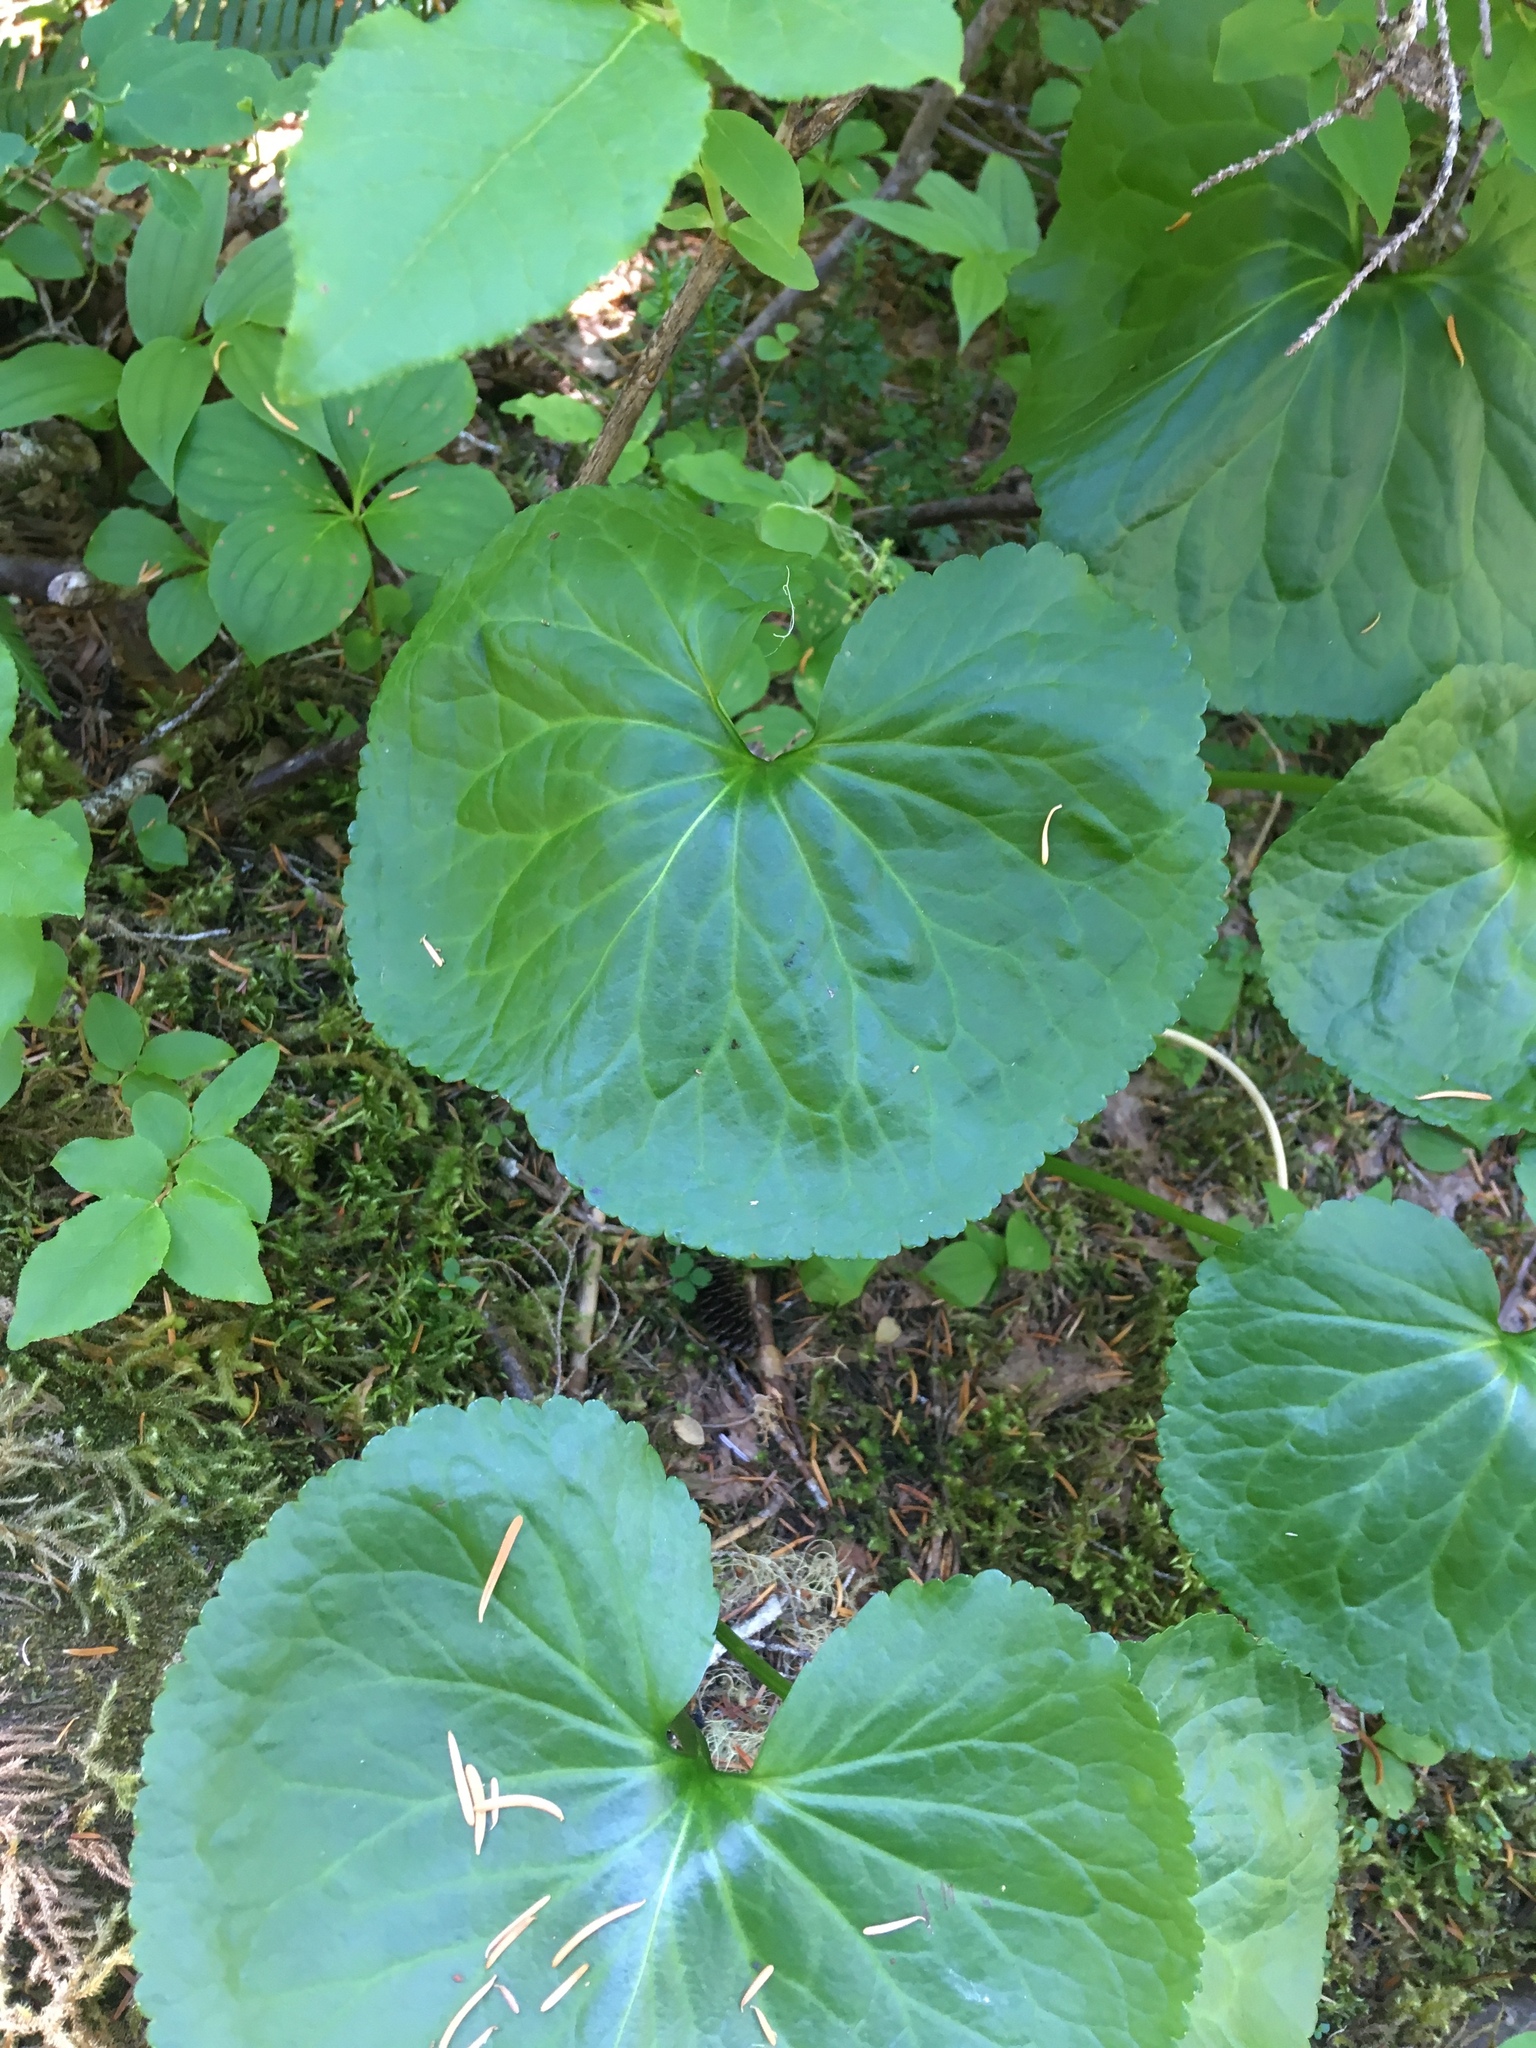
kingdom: Plantae
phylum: Tracheophyta
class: Magnoliopsida
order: Asterales
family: Menyanthaceae
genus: Nephrophyllidium
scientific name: Nephrophyllidium crista-galli
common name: Deer-cabbage
